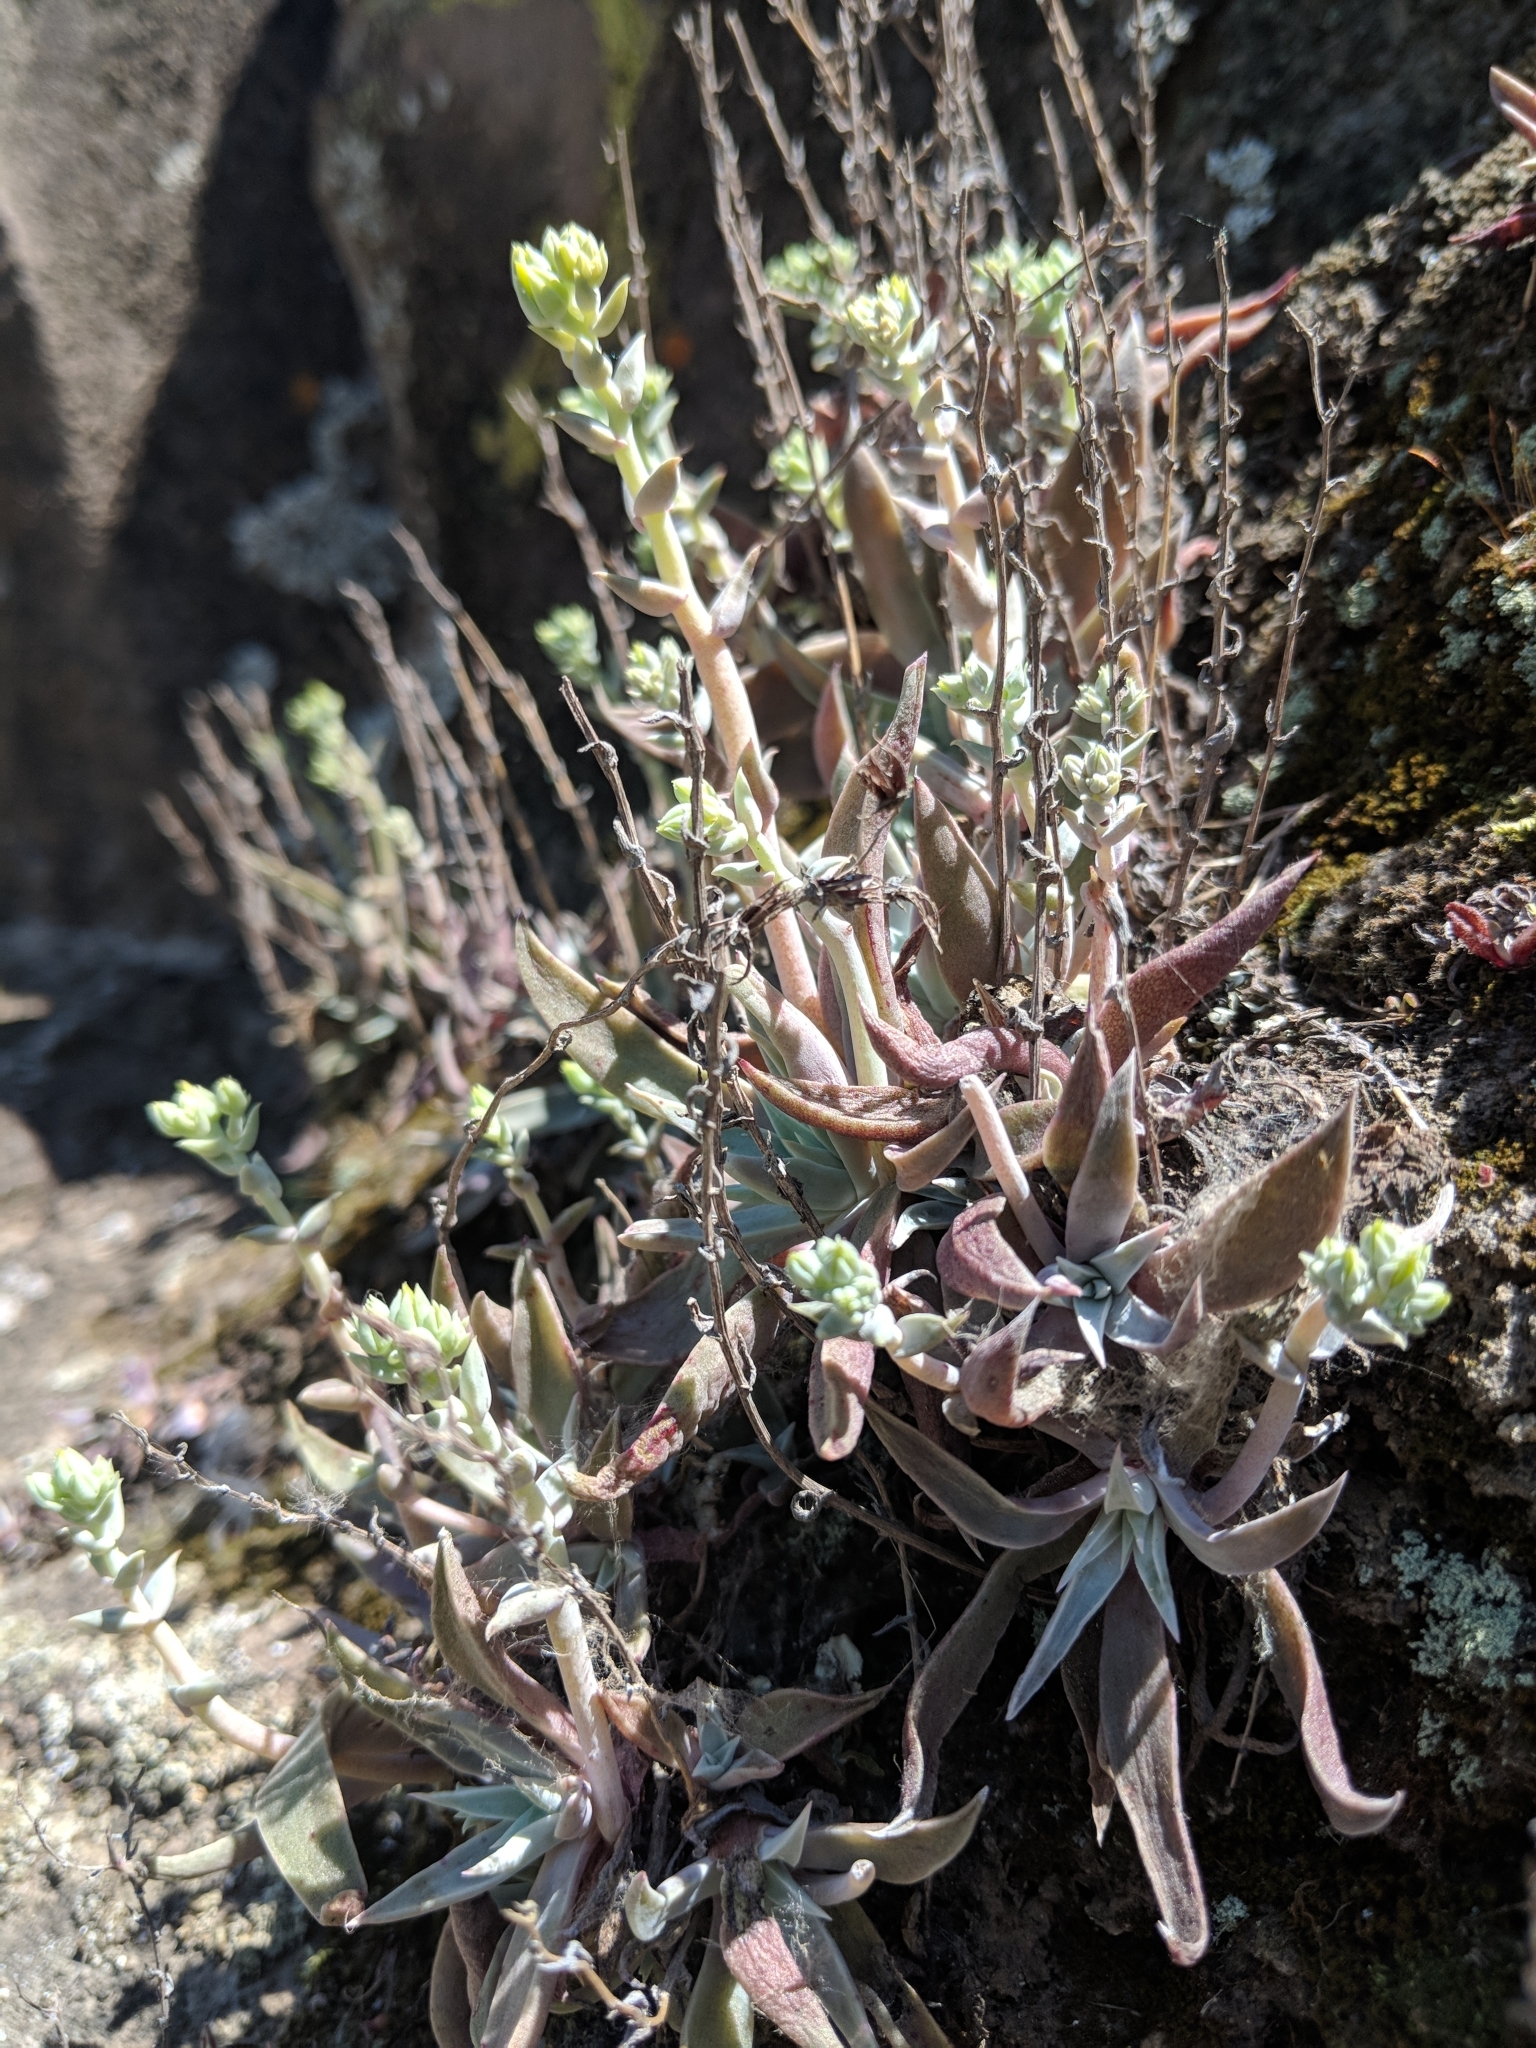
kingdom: Plantae
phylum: Tracheophyta
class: Magnoliopsida
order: Saxifragales
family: Crassulaceae
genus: Dudleya
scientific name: Dudleya verityi
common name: Verity dudleya
